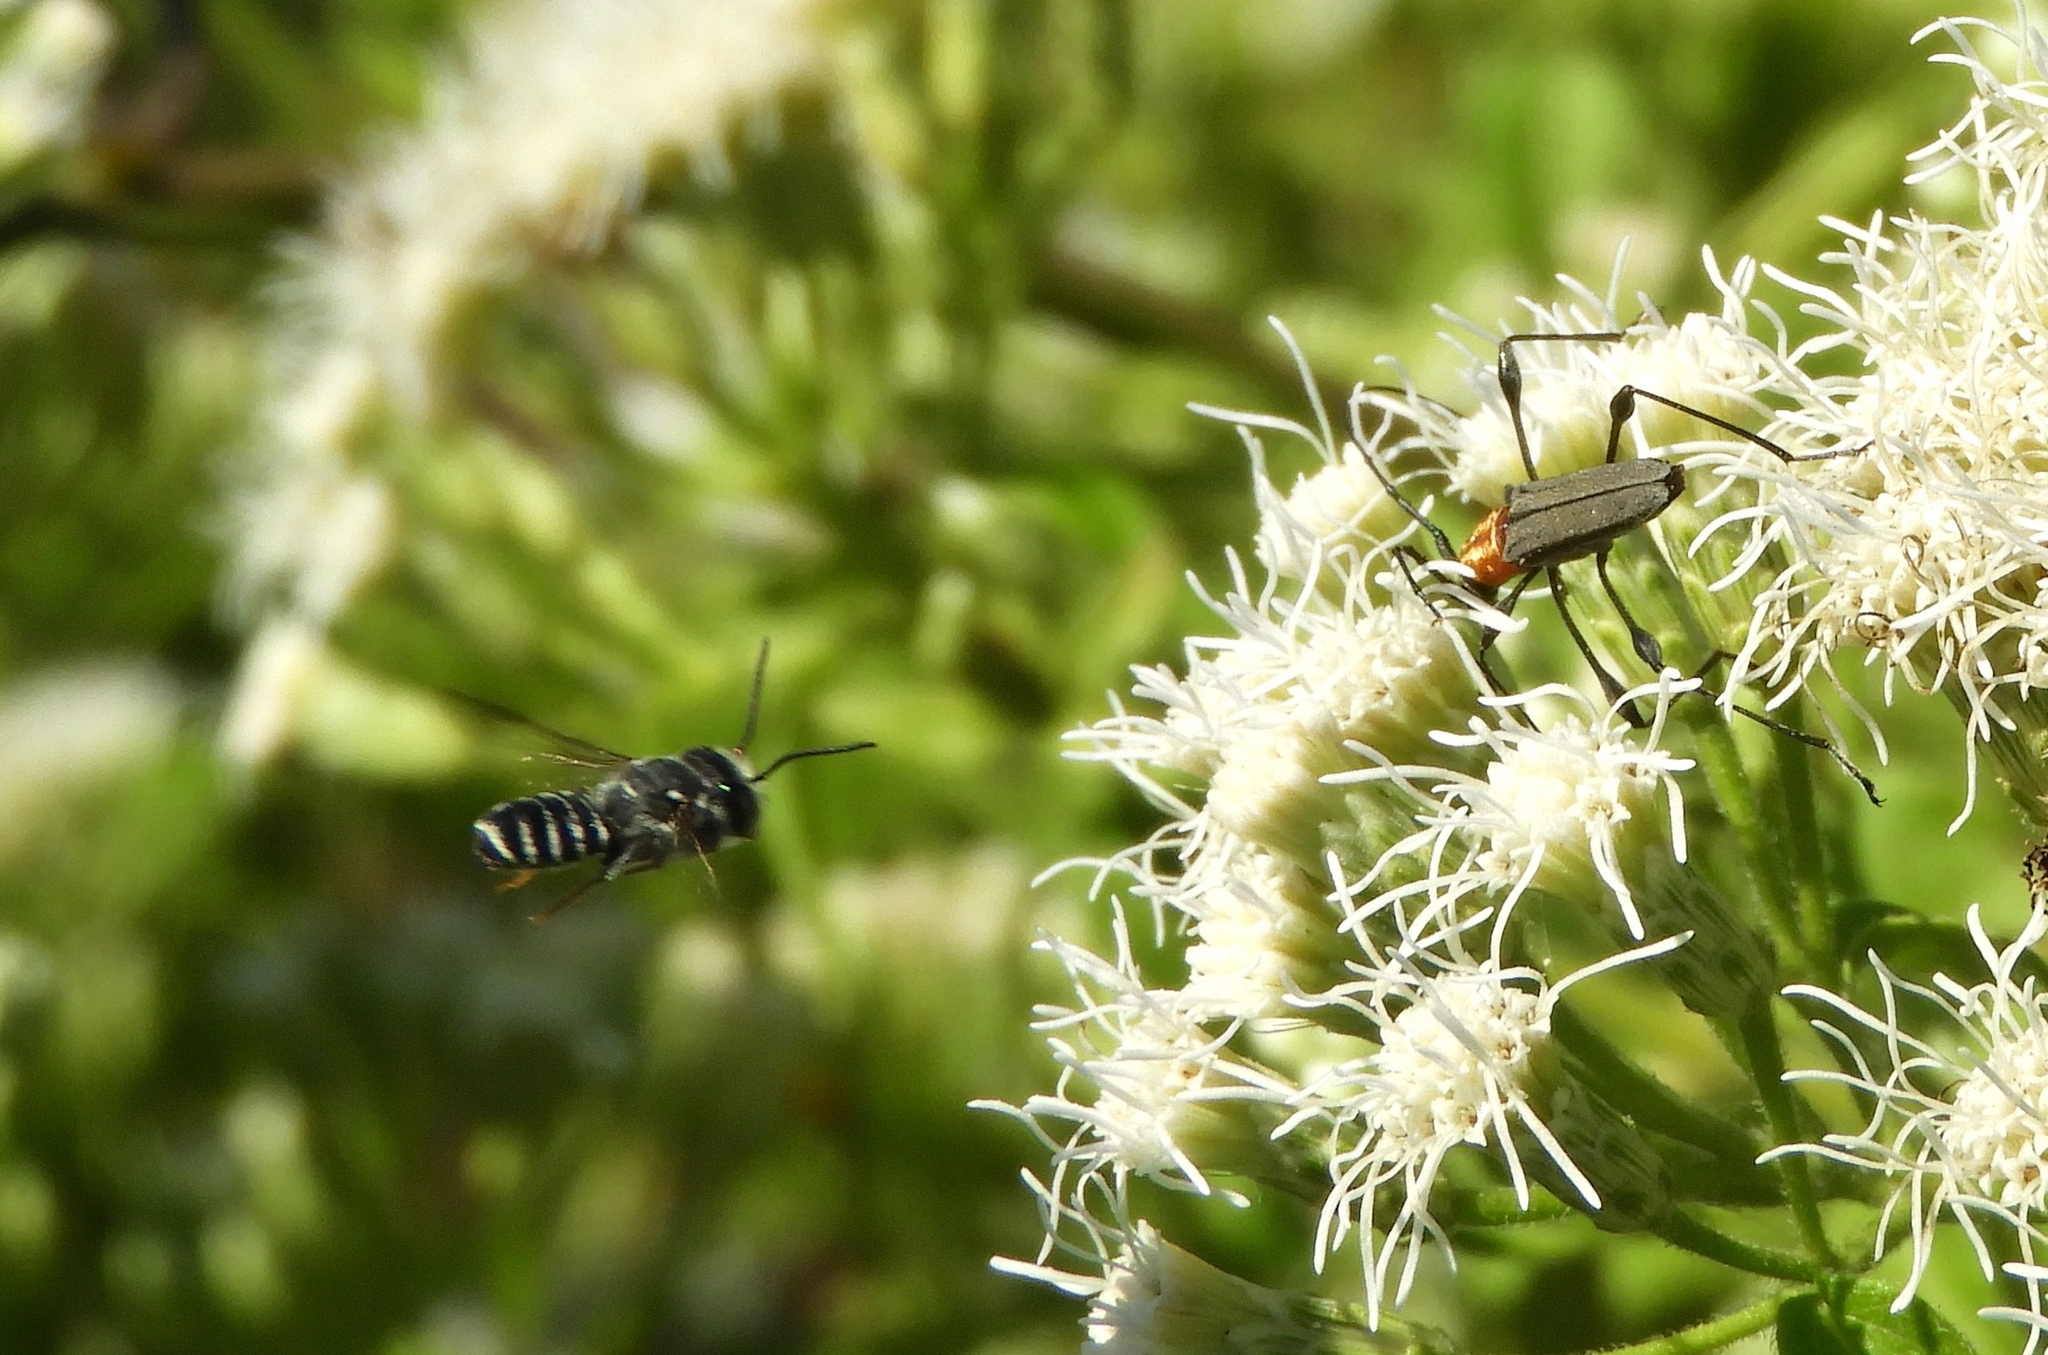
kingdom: Animalia
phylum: Arthropoda
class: Insecta
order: Hymenoptera
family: Megachilidae
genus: Megachile
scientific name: Megachile
